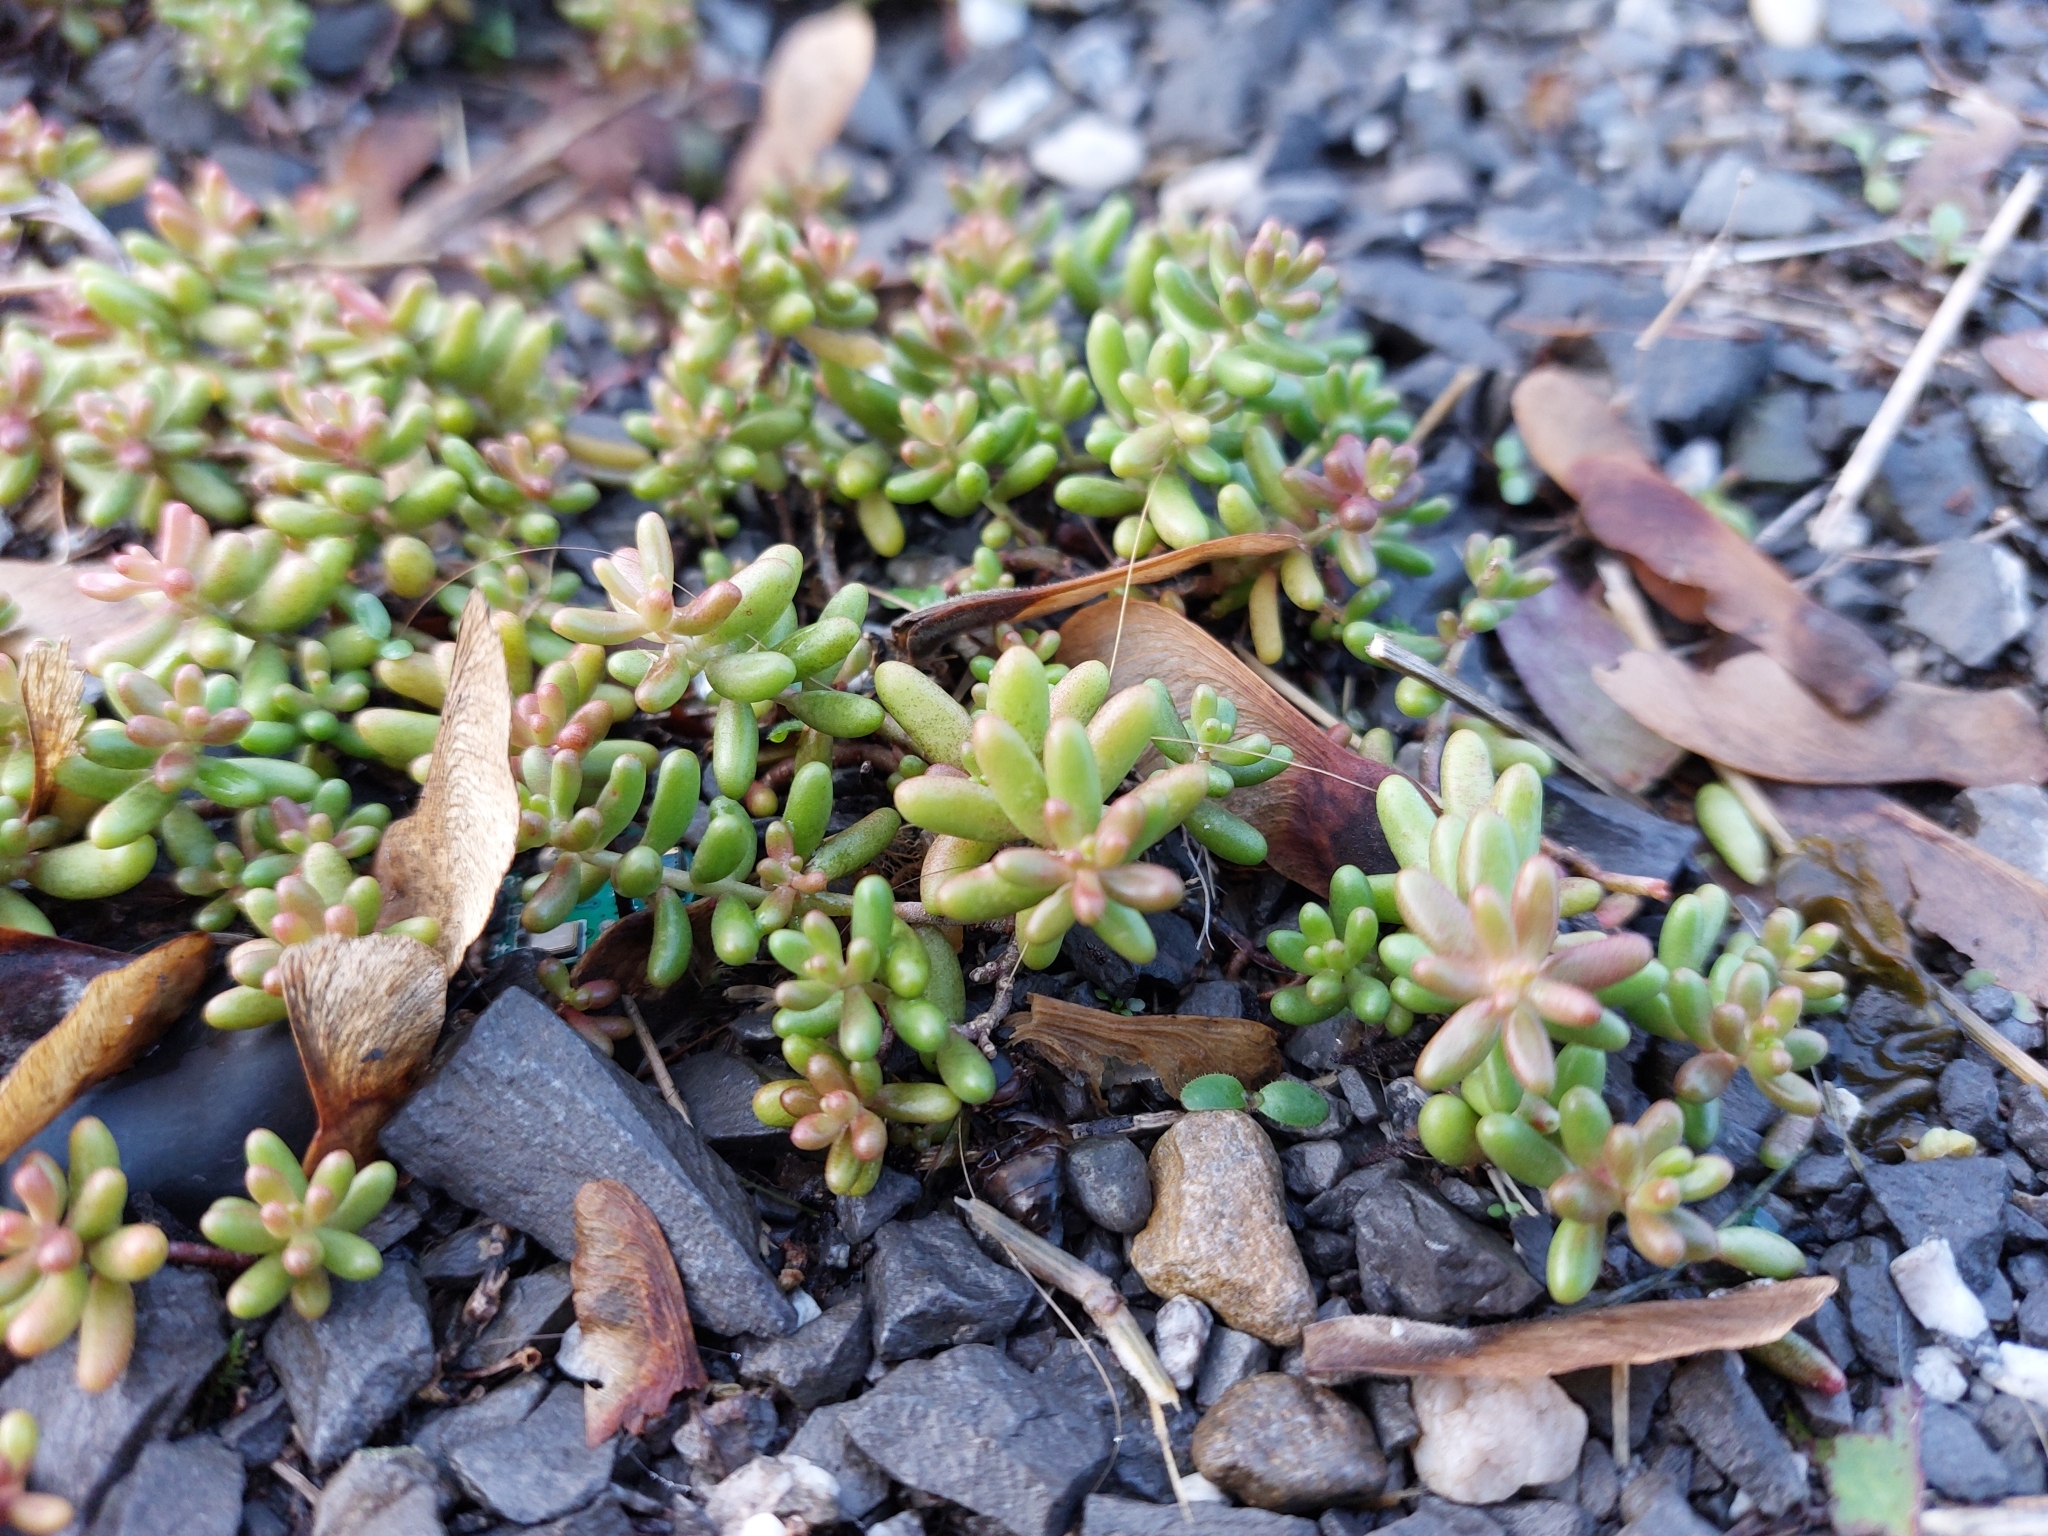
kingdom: Plantae
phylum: Tracheophyta
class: Magnoliopsida
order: Saxifragales
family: Crassulaceae
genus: Sedum
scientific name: Sedum album
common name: White stonecrop
